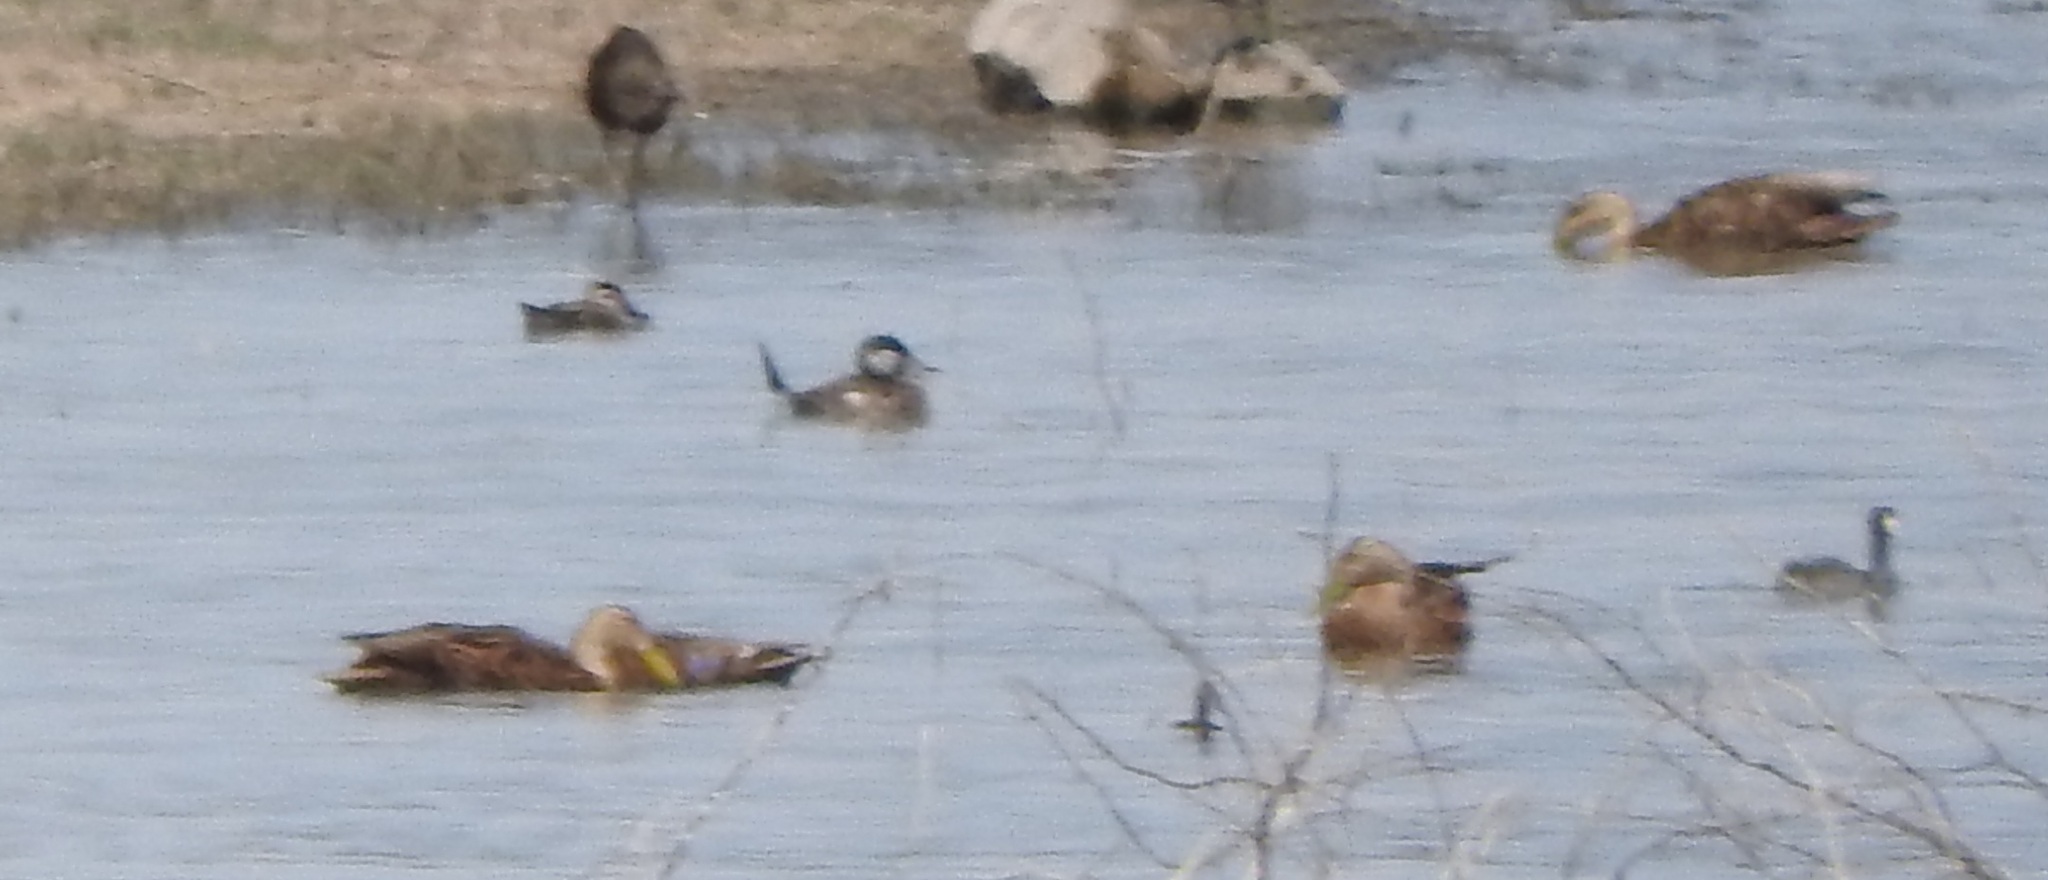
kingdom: Animalia
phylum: Chordata
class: Aves
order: Anseriformes
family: Anatidae
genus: Oxyura
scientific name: Oxyura jamaicensis
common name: Ruddy duck
